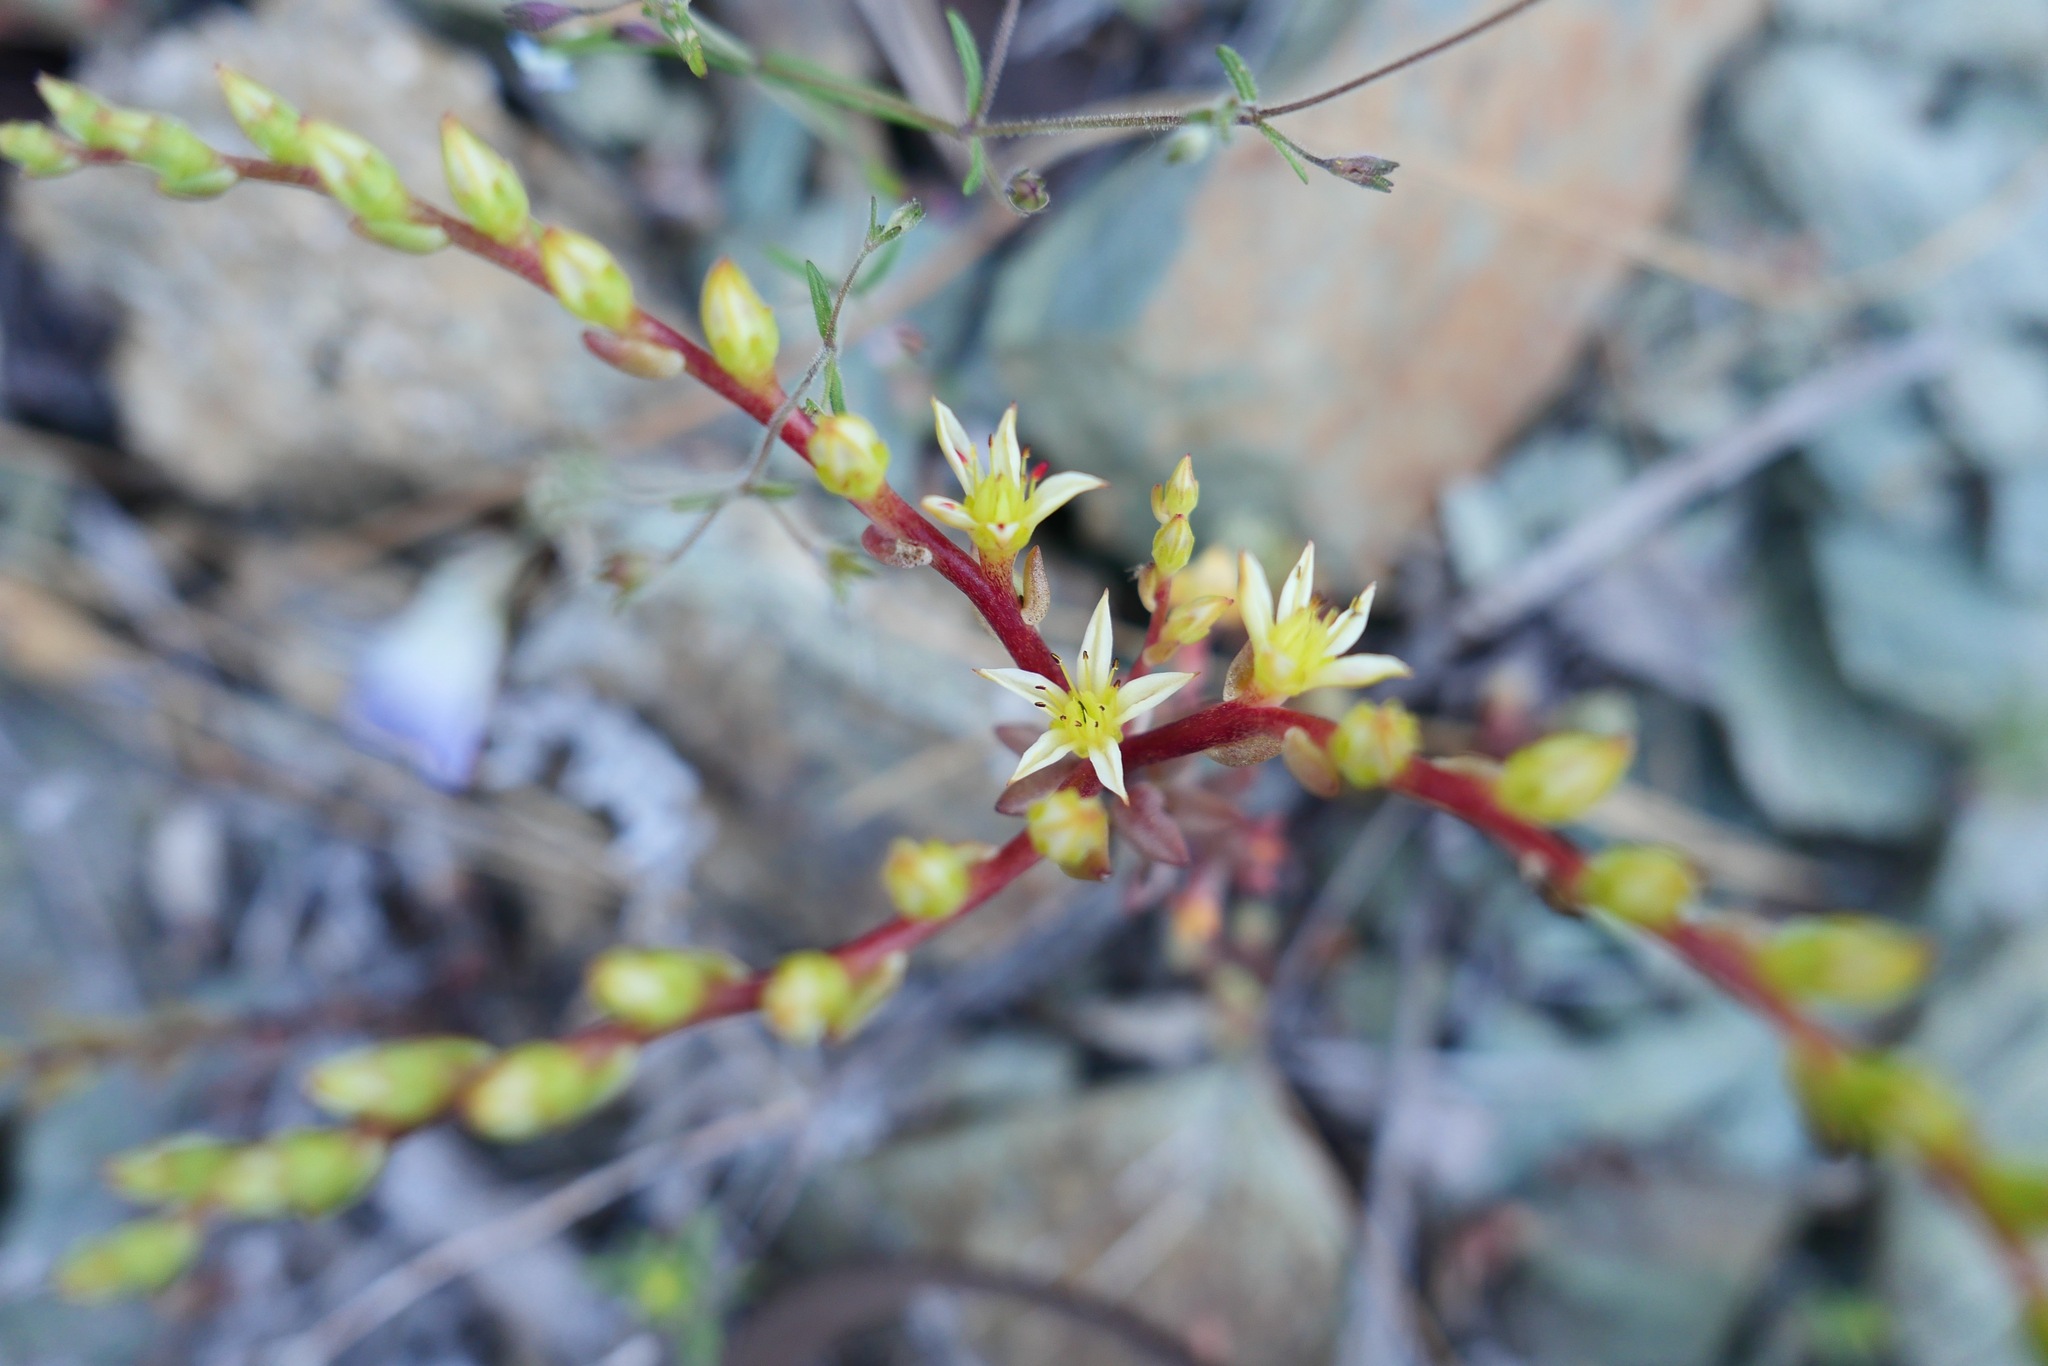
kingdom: Plantae
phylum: Tracheophyta
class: Magnoliopsida
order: Saxifragales
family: Crassulaceae
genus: Sedum
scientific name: Sedum radiatum
